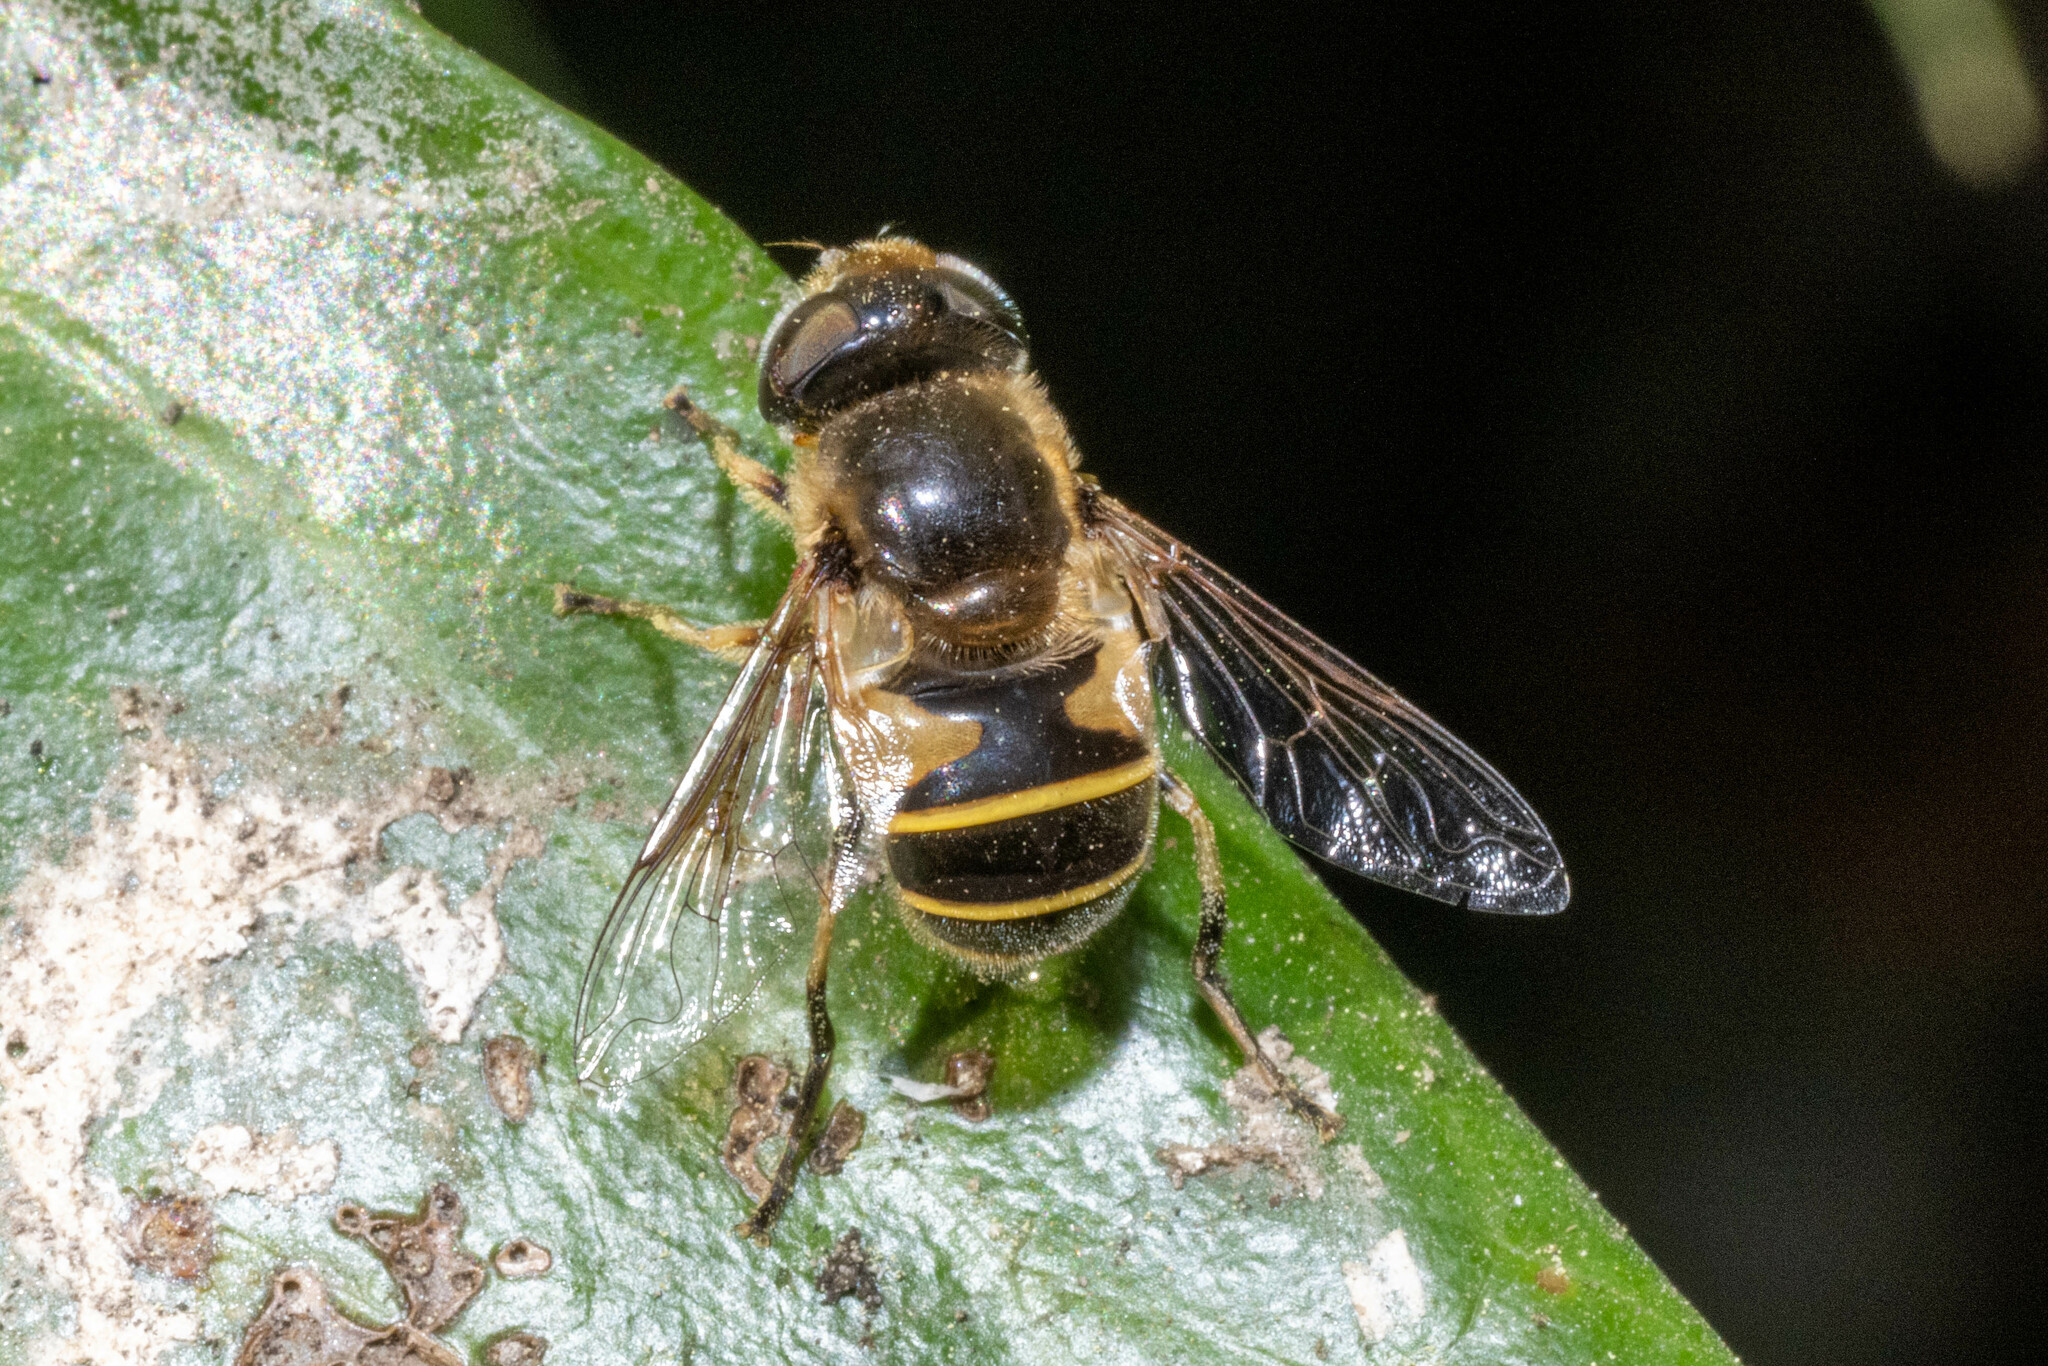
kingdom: Animalia
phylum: Arthropoda
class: Insecta
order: Diptera
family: Syrphidae
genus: Eristalis
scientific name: Eristalis hirta
